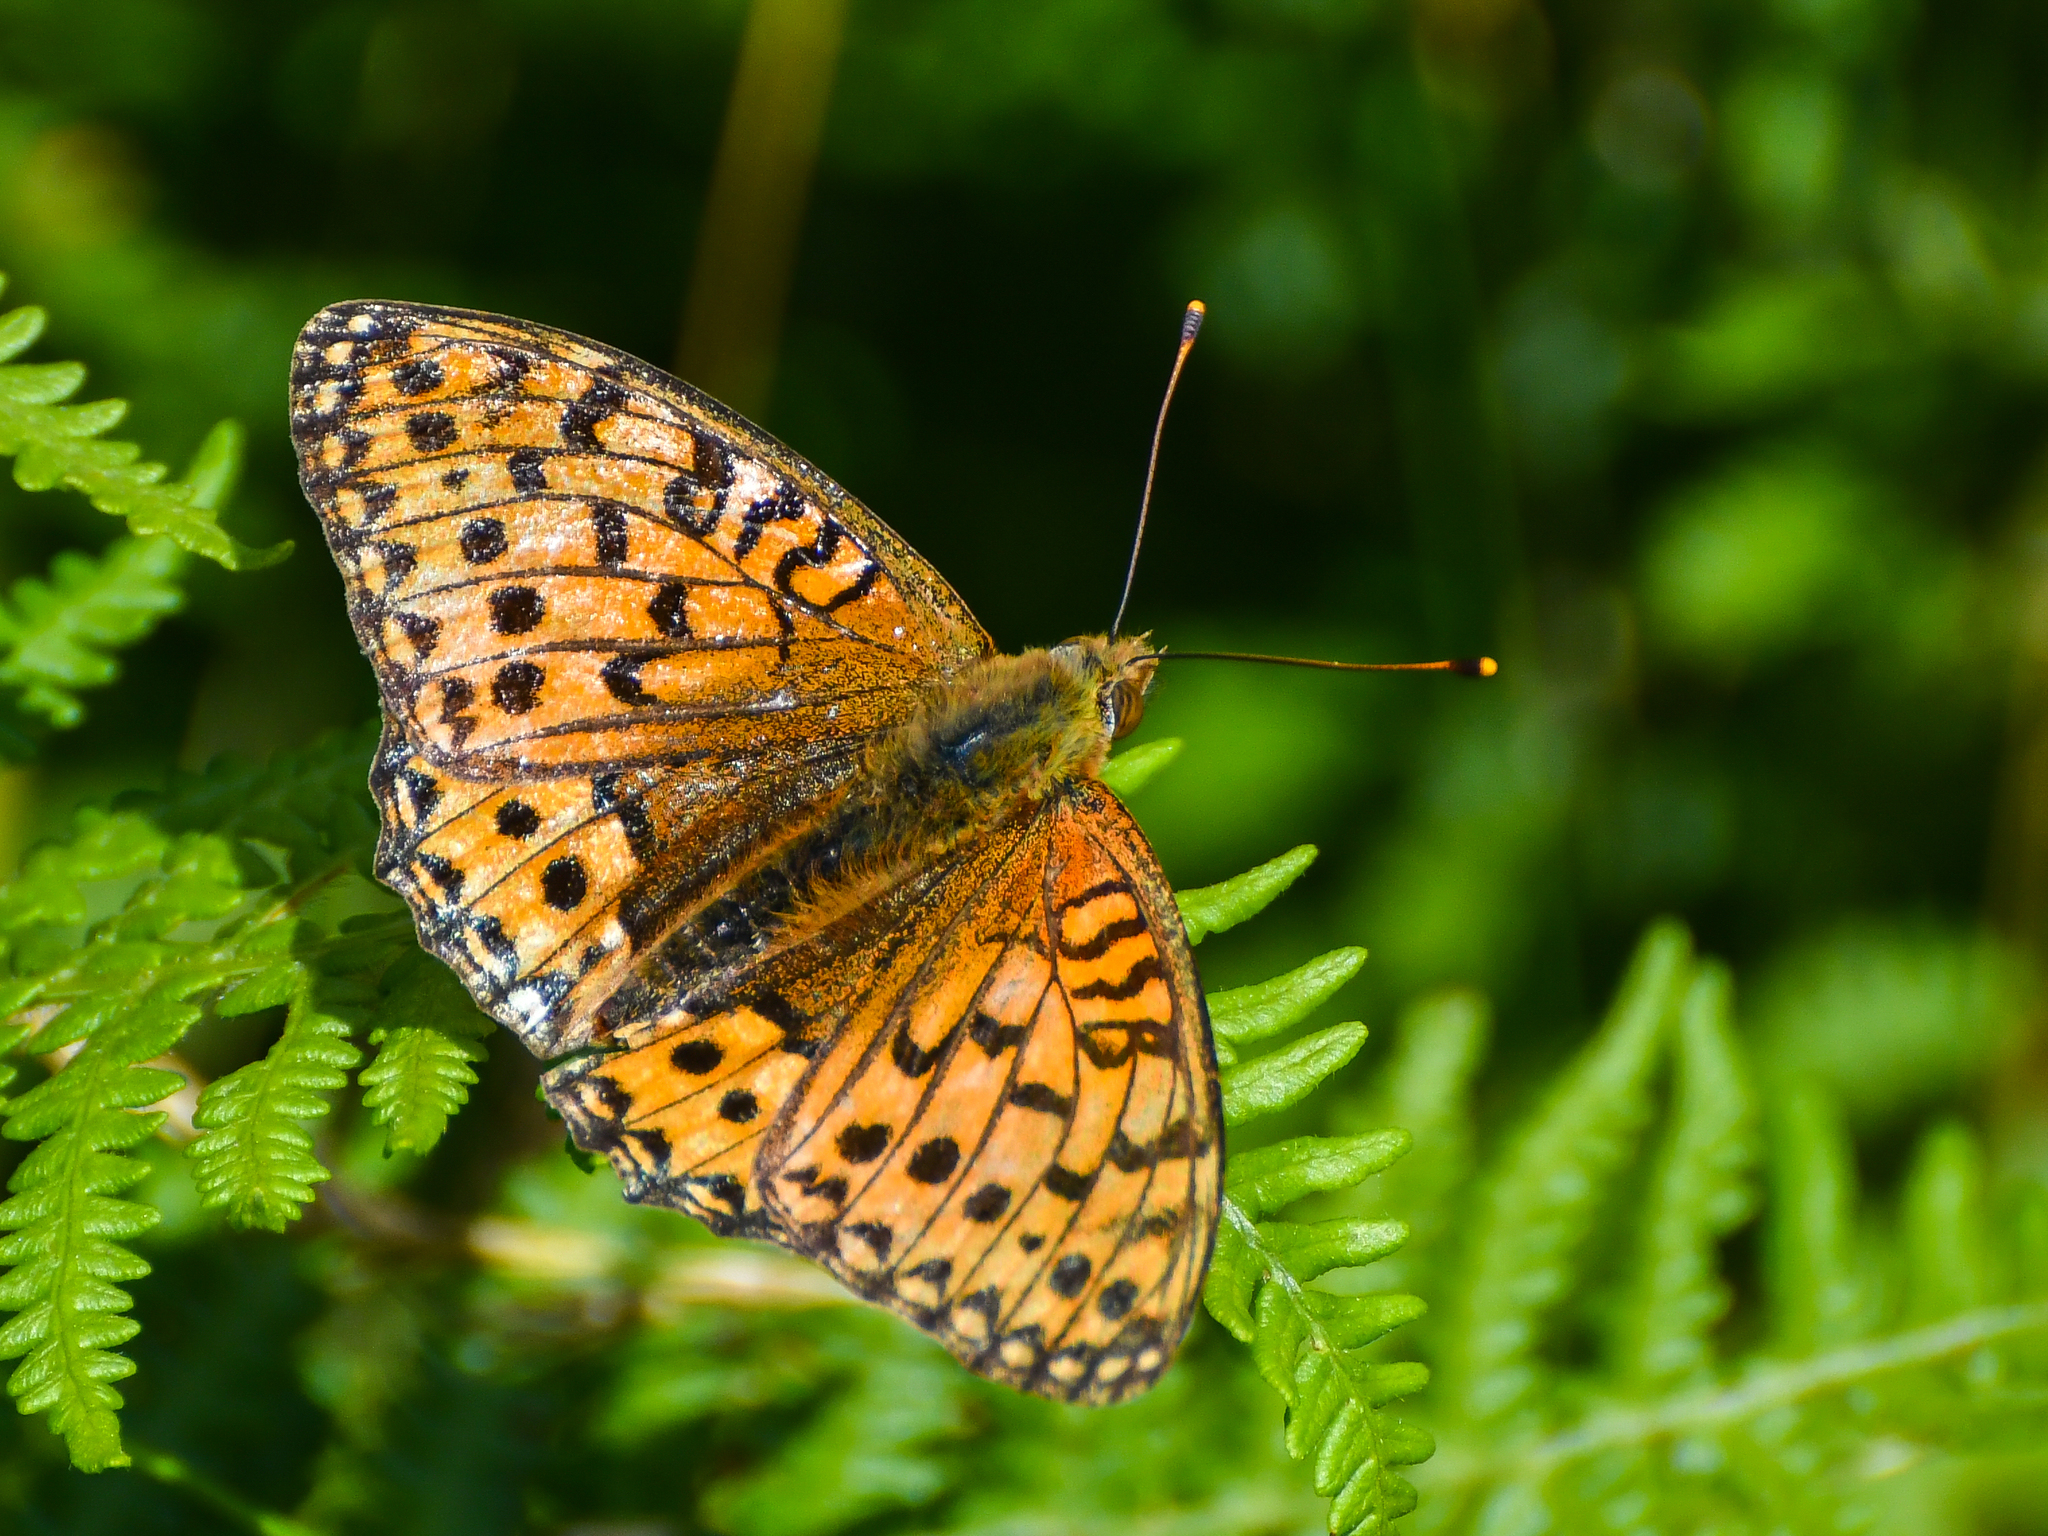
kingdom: Animalia
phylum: Arthropoda
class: Insecta
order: Lepidoptera
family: Nymphalidae
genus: Speyeria
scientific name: Speyeria aglaja
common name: Dark green fritillary
